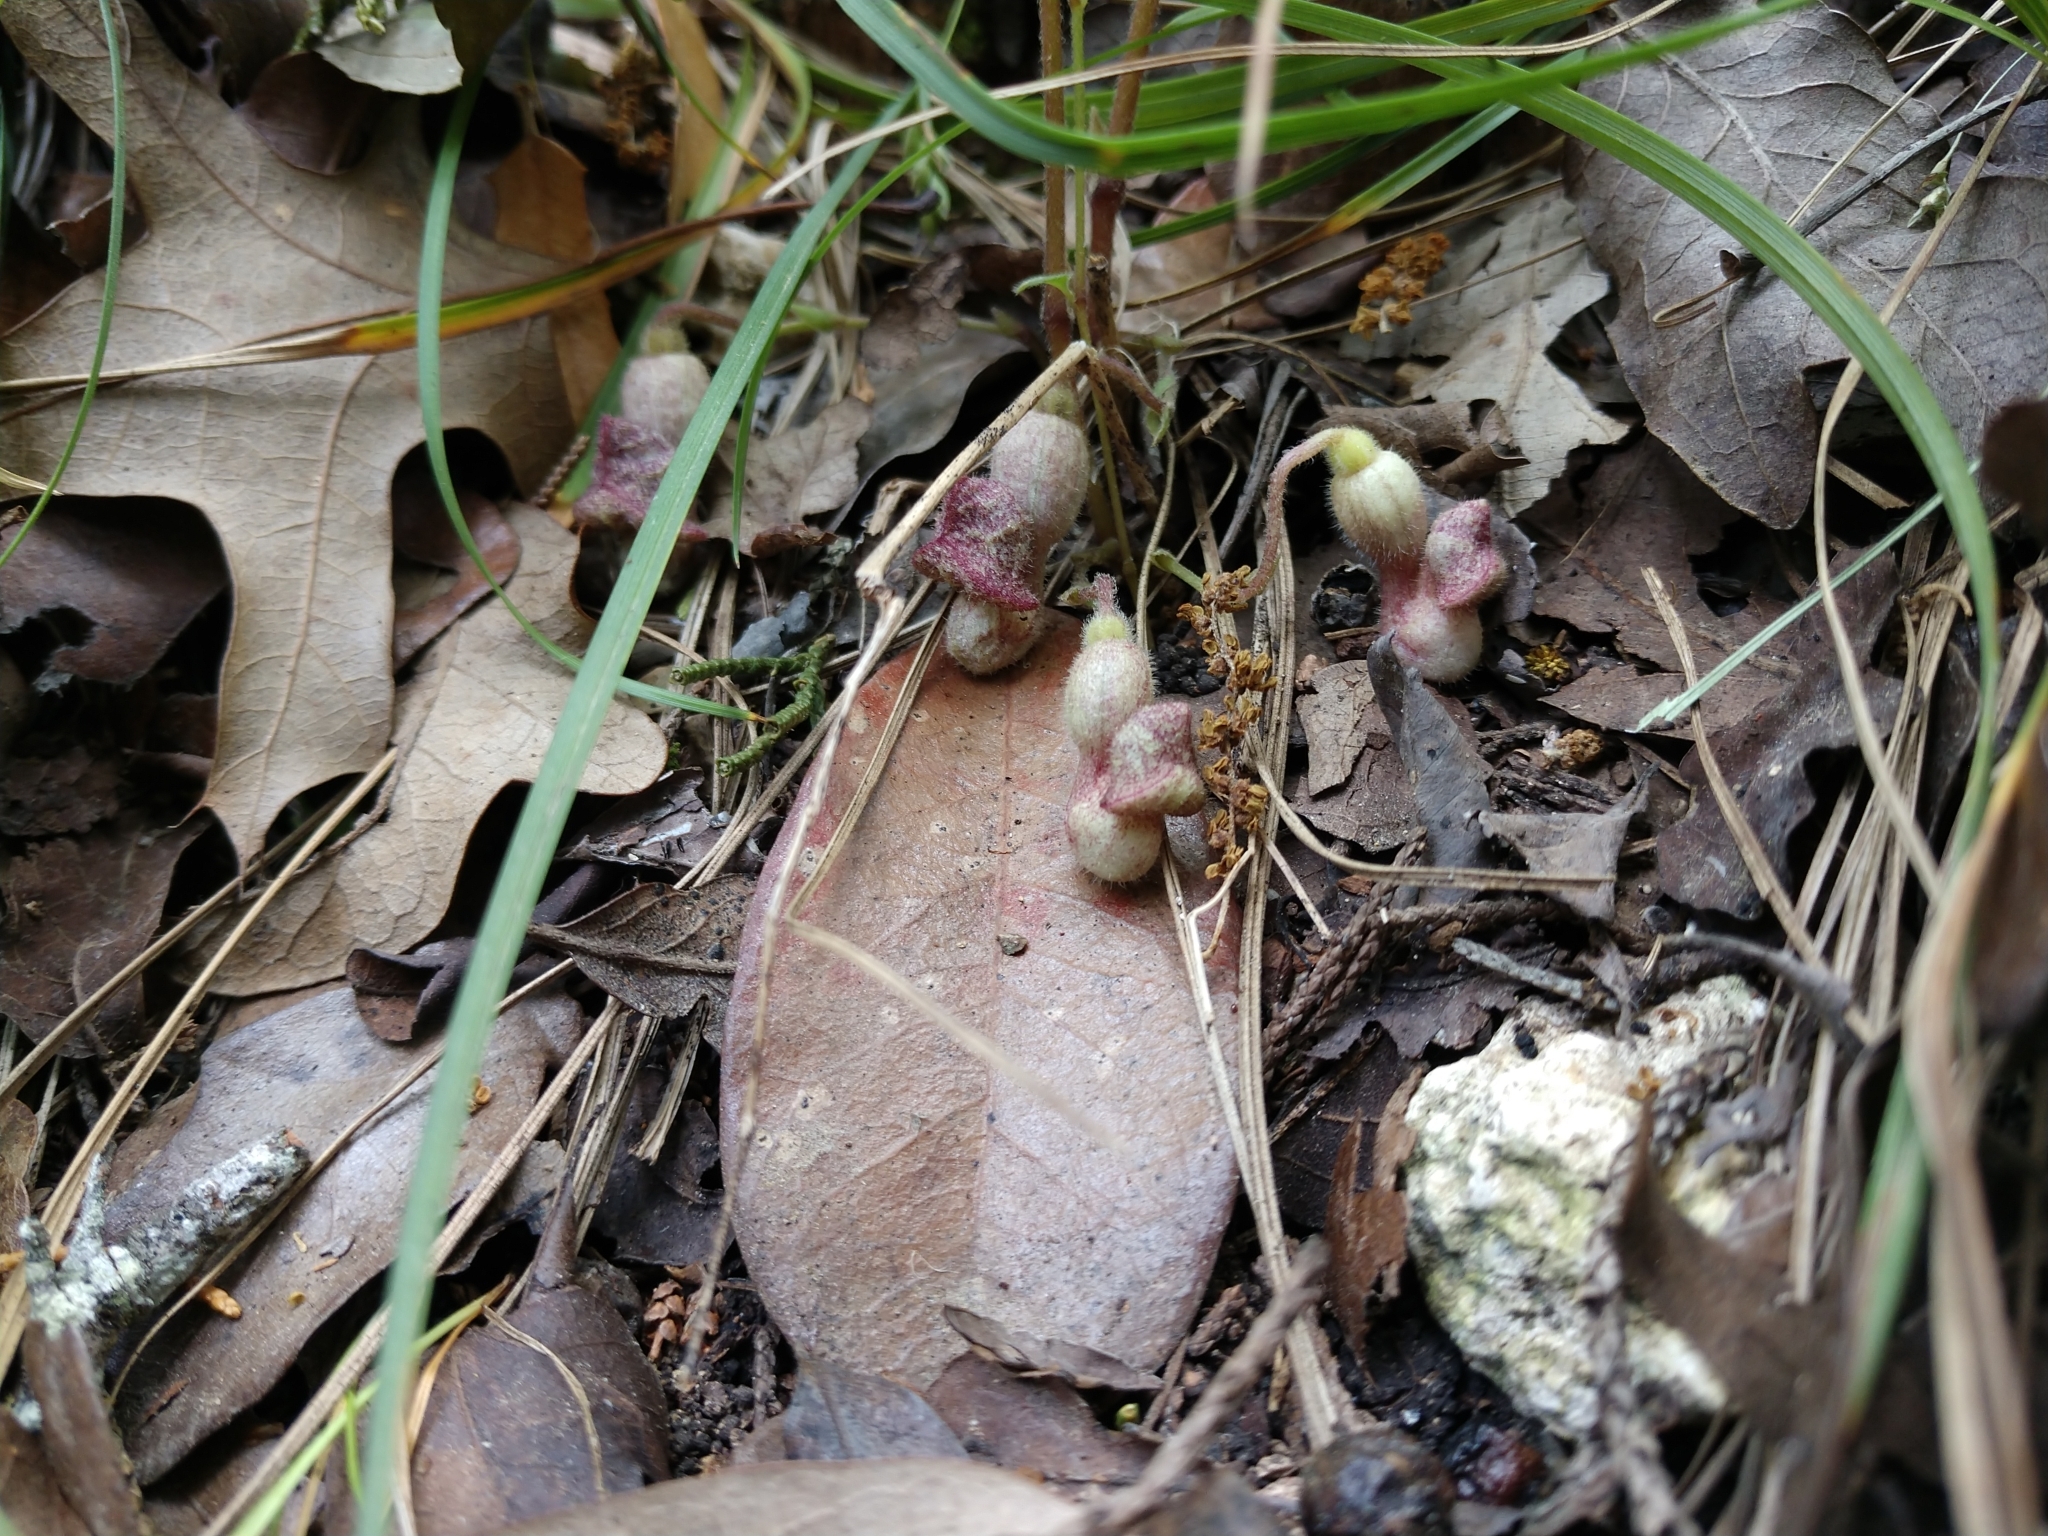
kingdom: Plantae
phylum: Tracheophyta
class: Magnoliopsida
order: Piperales
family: Aristolochiaceae
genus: Endodeca
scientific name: Endodeca serpentaria
